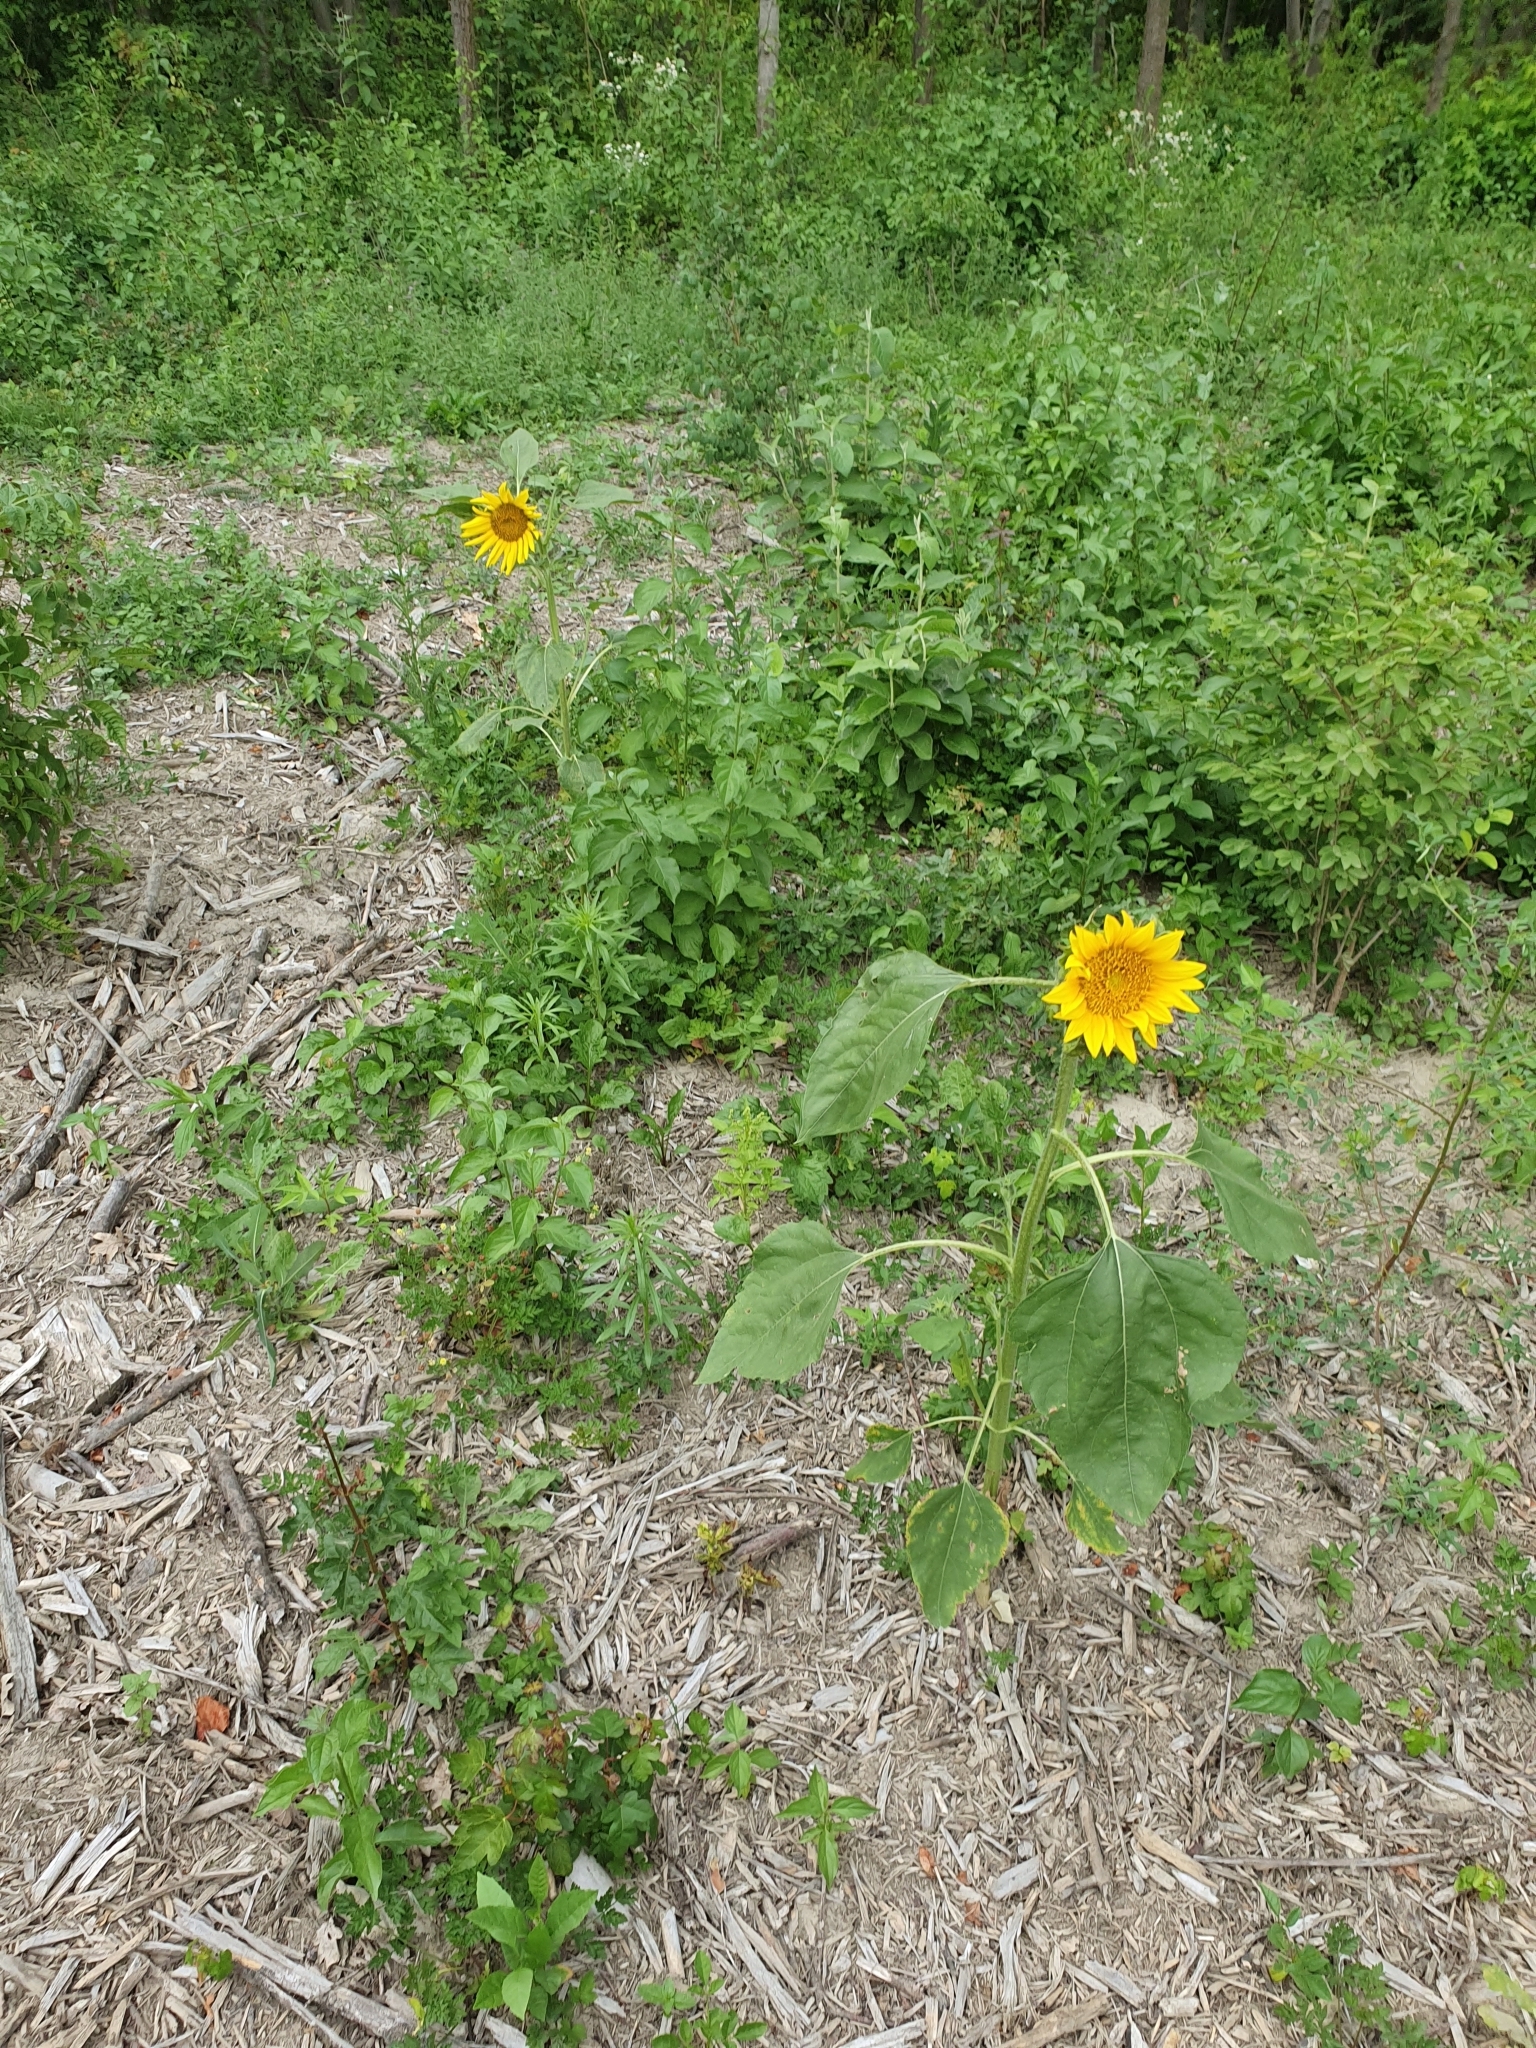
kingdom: Plantae
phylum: Tracheophyta
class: Magnoliopsida
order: Asterales
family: Asteraceae
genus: Helianthus
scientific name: Helianthus annuus
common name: Sunflower
